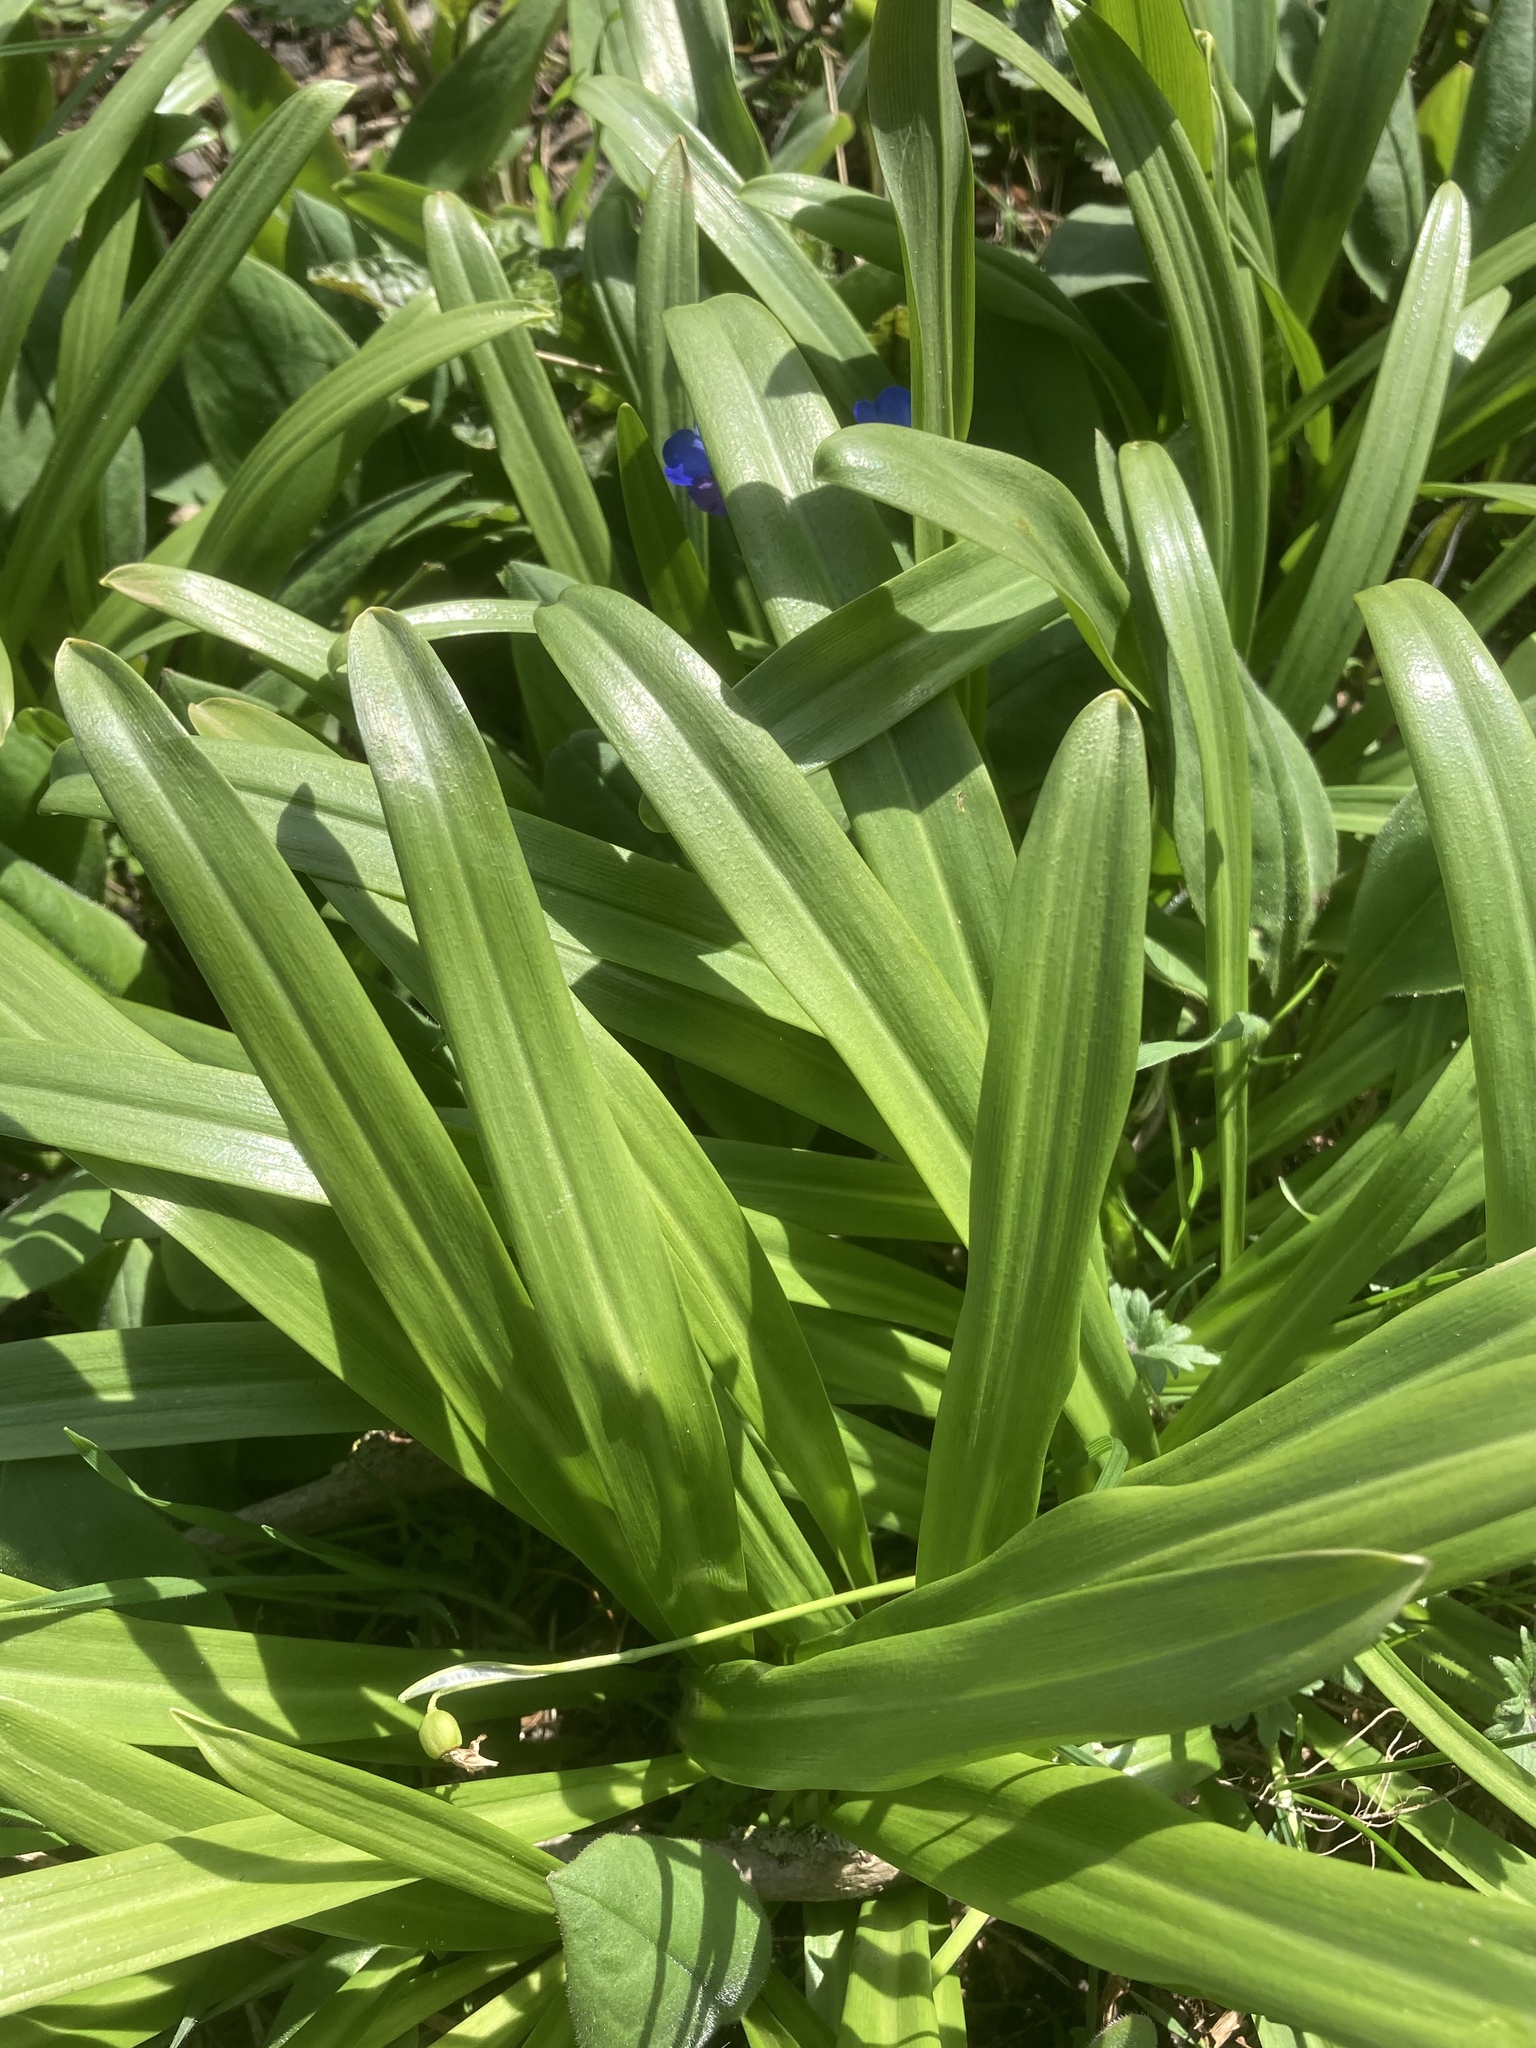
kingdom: Plantae
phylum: Tracheophyta
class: Liliopsida
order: Asparagales
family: Amaryllidaceae
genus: Galanthus
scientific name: Galanthus woronowii
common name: Green snowdrop
